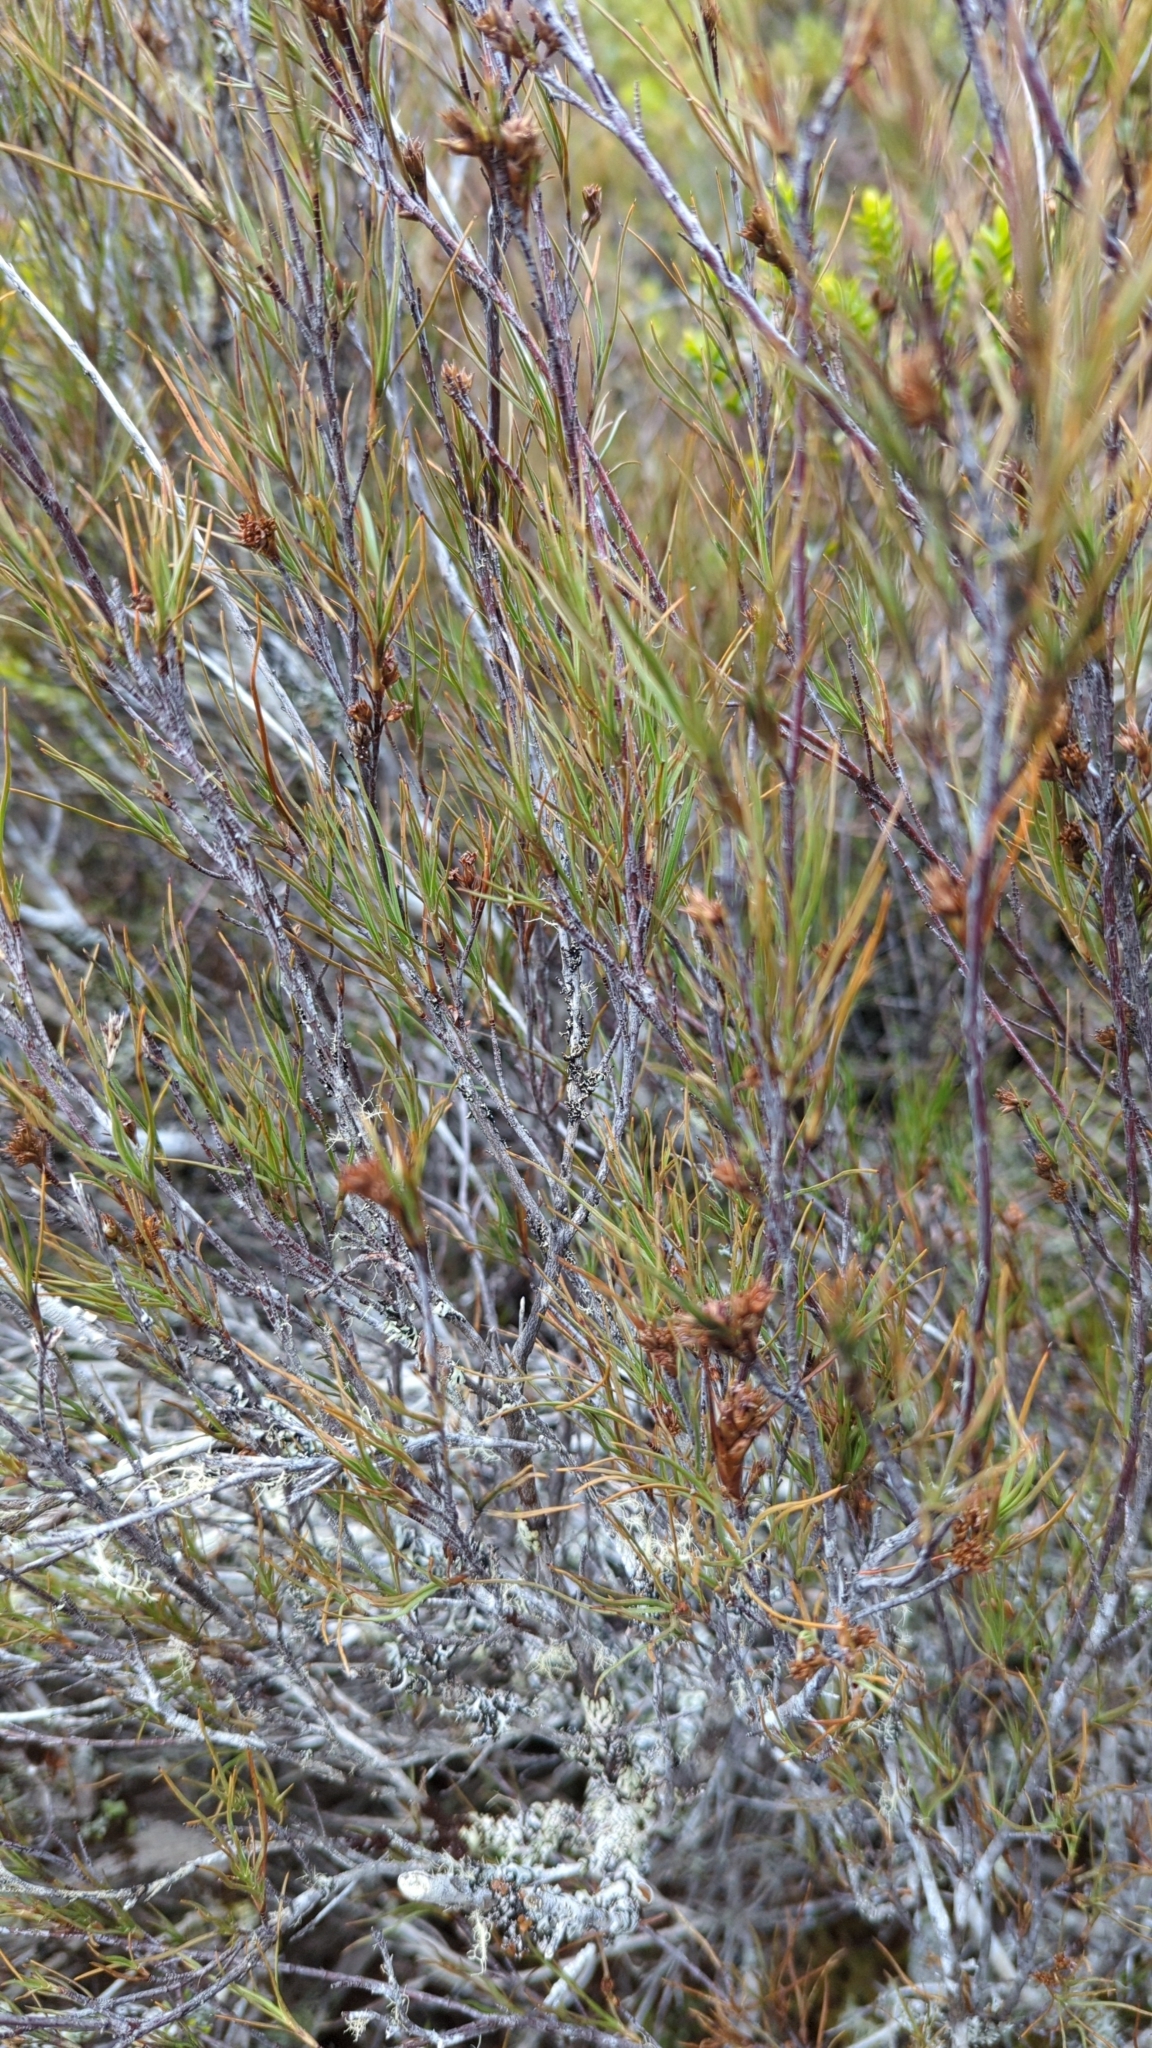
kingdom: Plantae
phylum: Tracheophyta
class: Magnoliopsida
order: Ericales
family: Ericaceae
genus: Dracophyllum
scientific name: Dracophyllum subulatum
